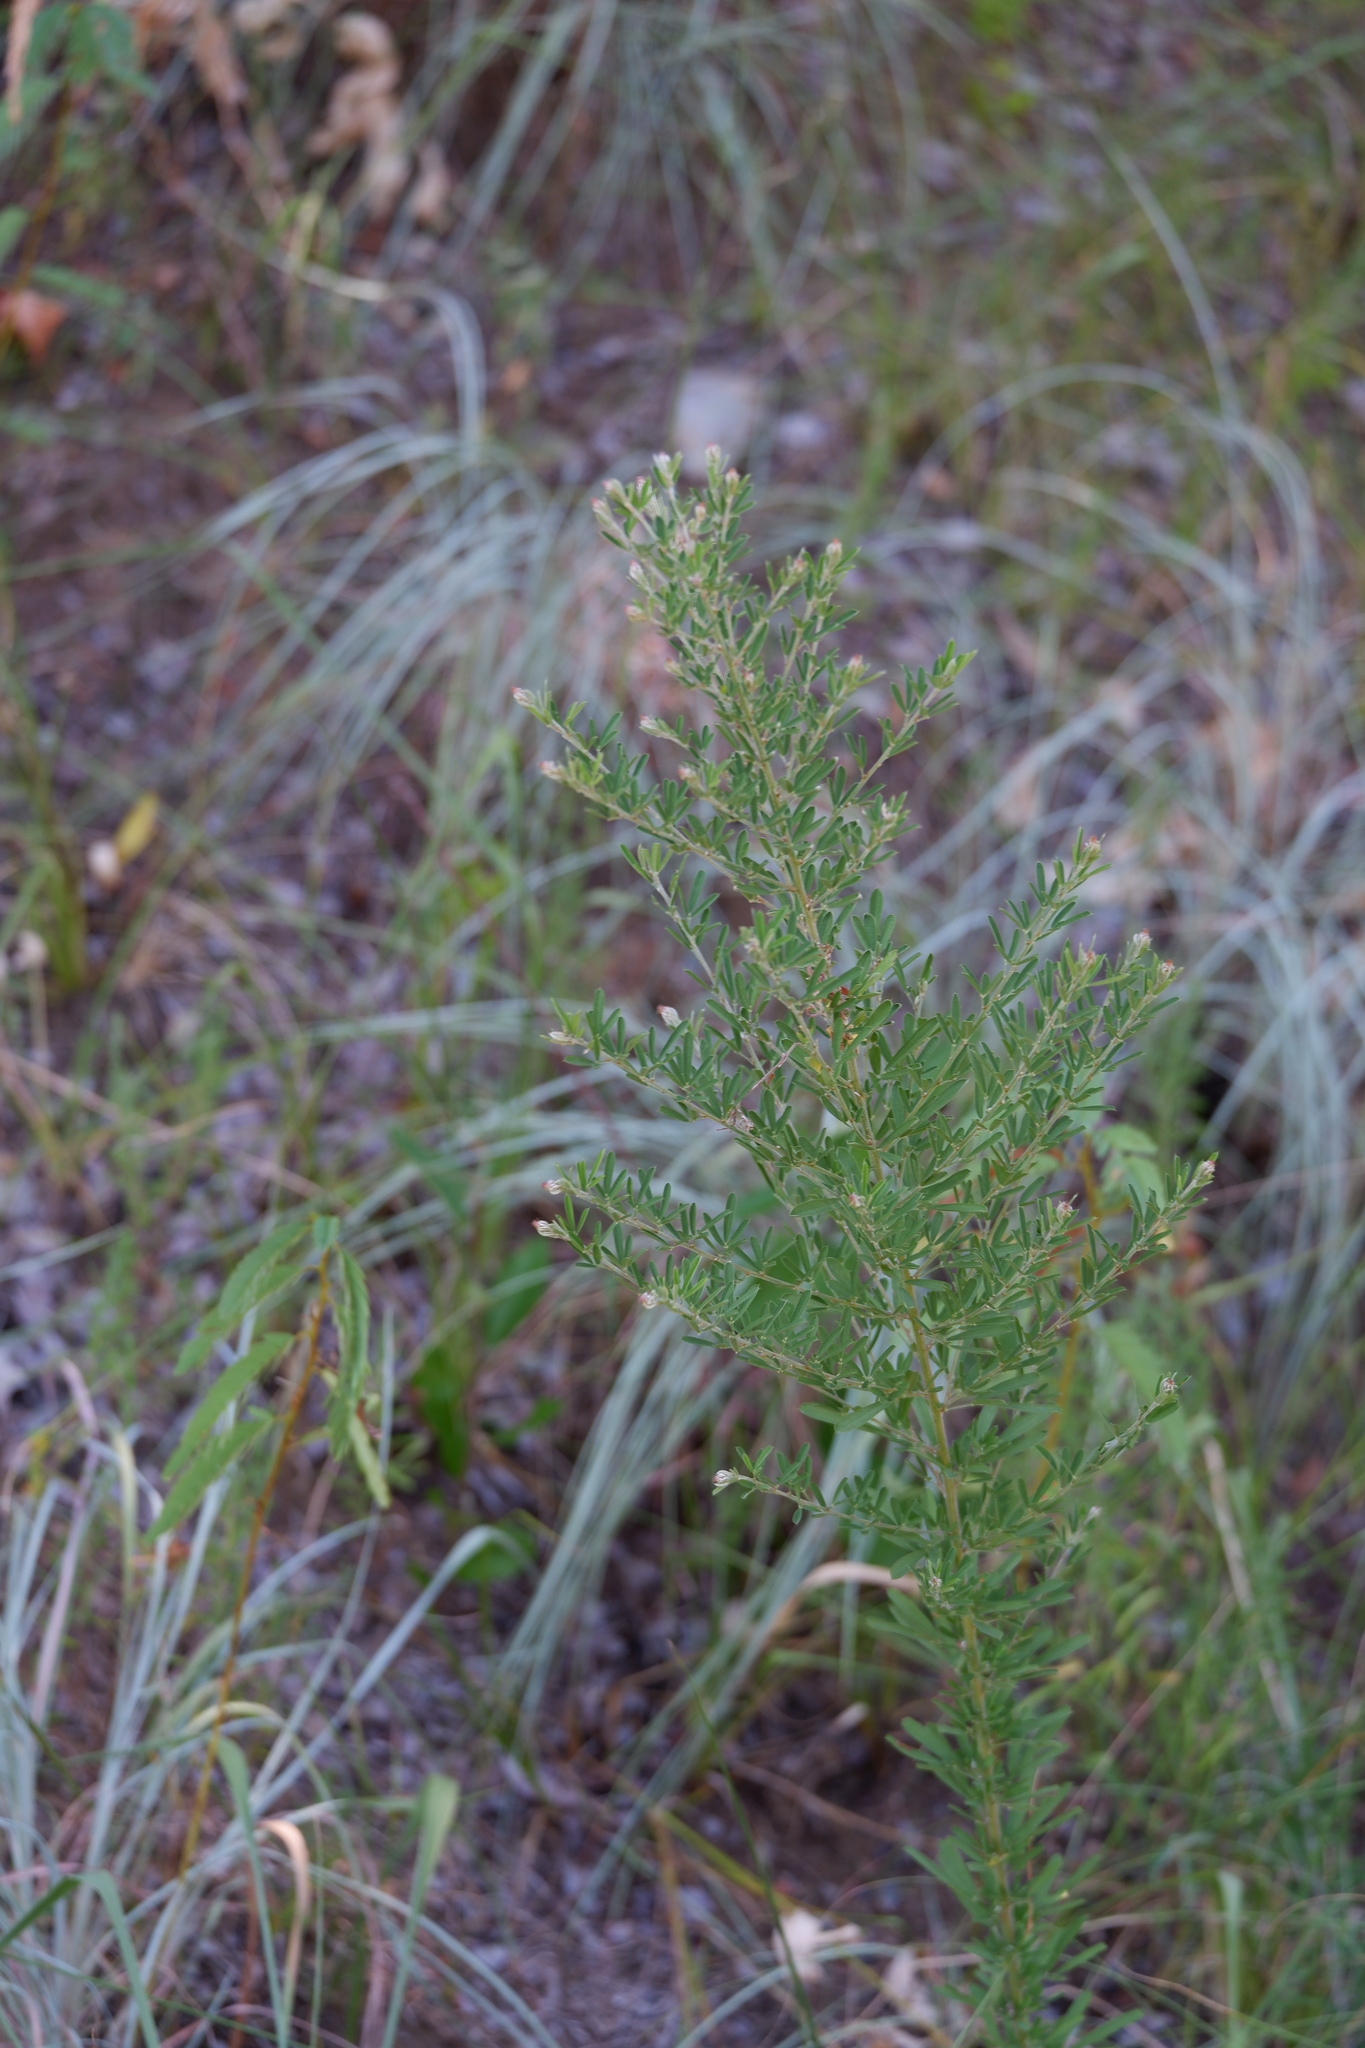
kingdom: Plantae
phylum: Tracheophyta
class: Magnoliopsida
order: Fabales
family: Fabaceae
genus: Lespedeza
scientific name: Lespedeza cuneata
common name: Chinese bush-clover
